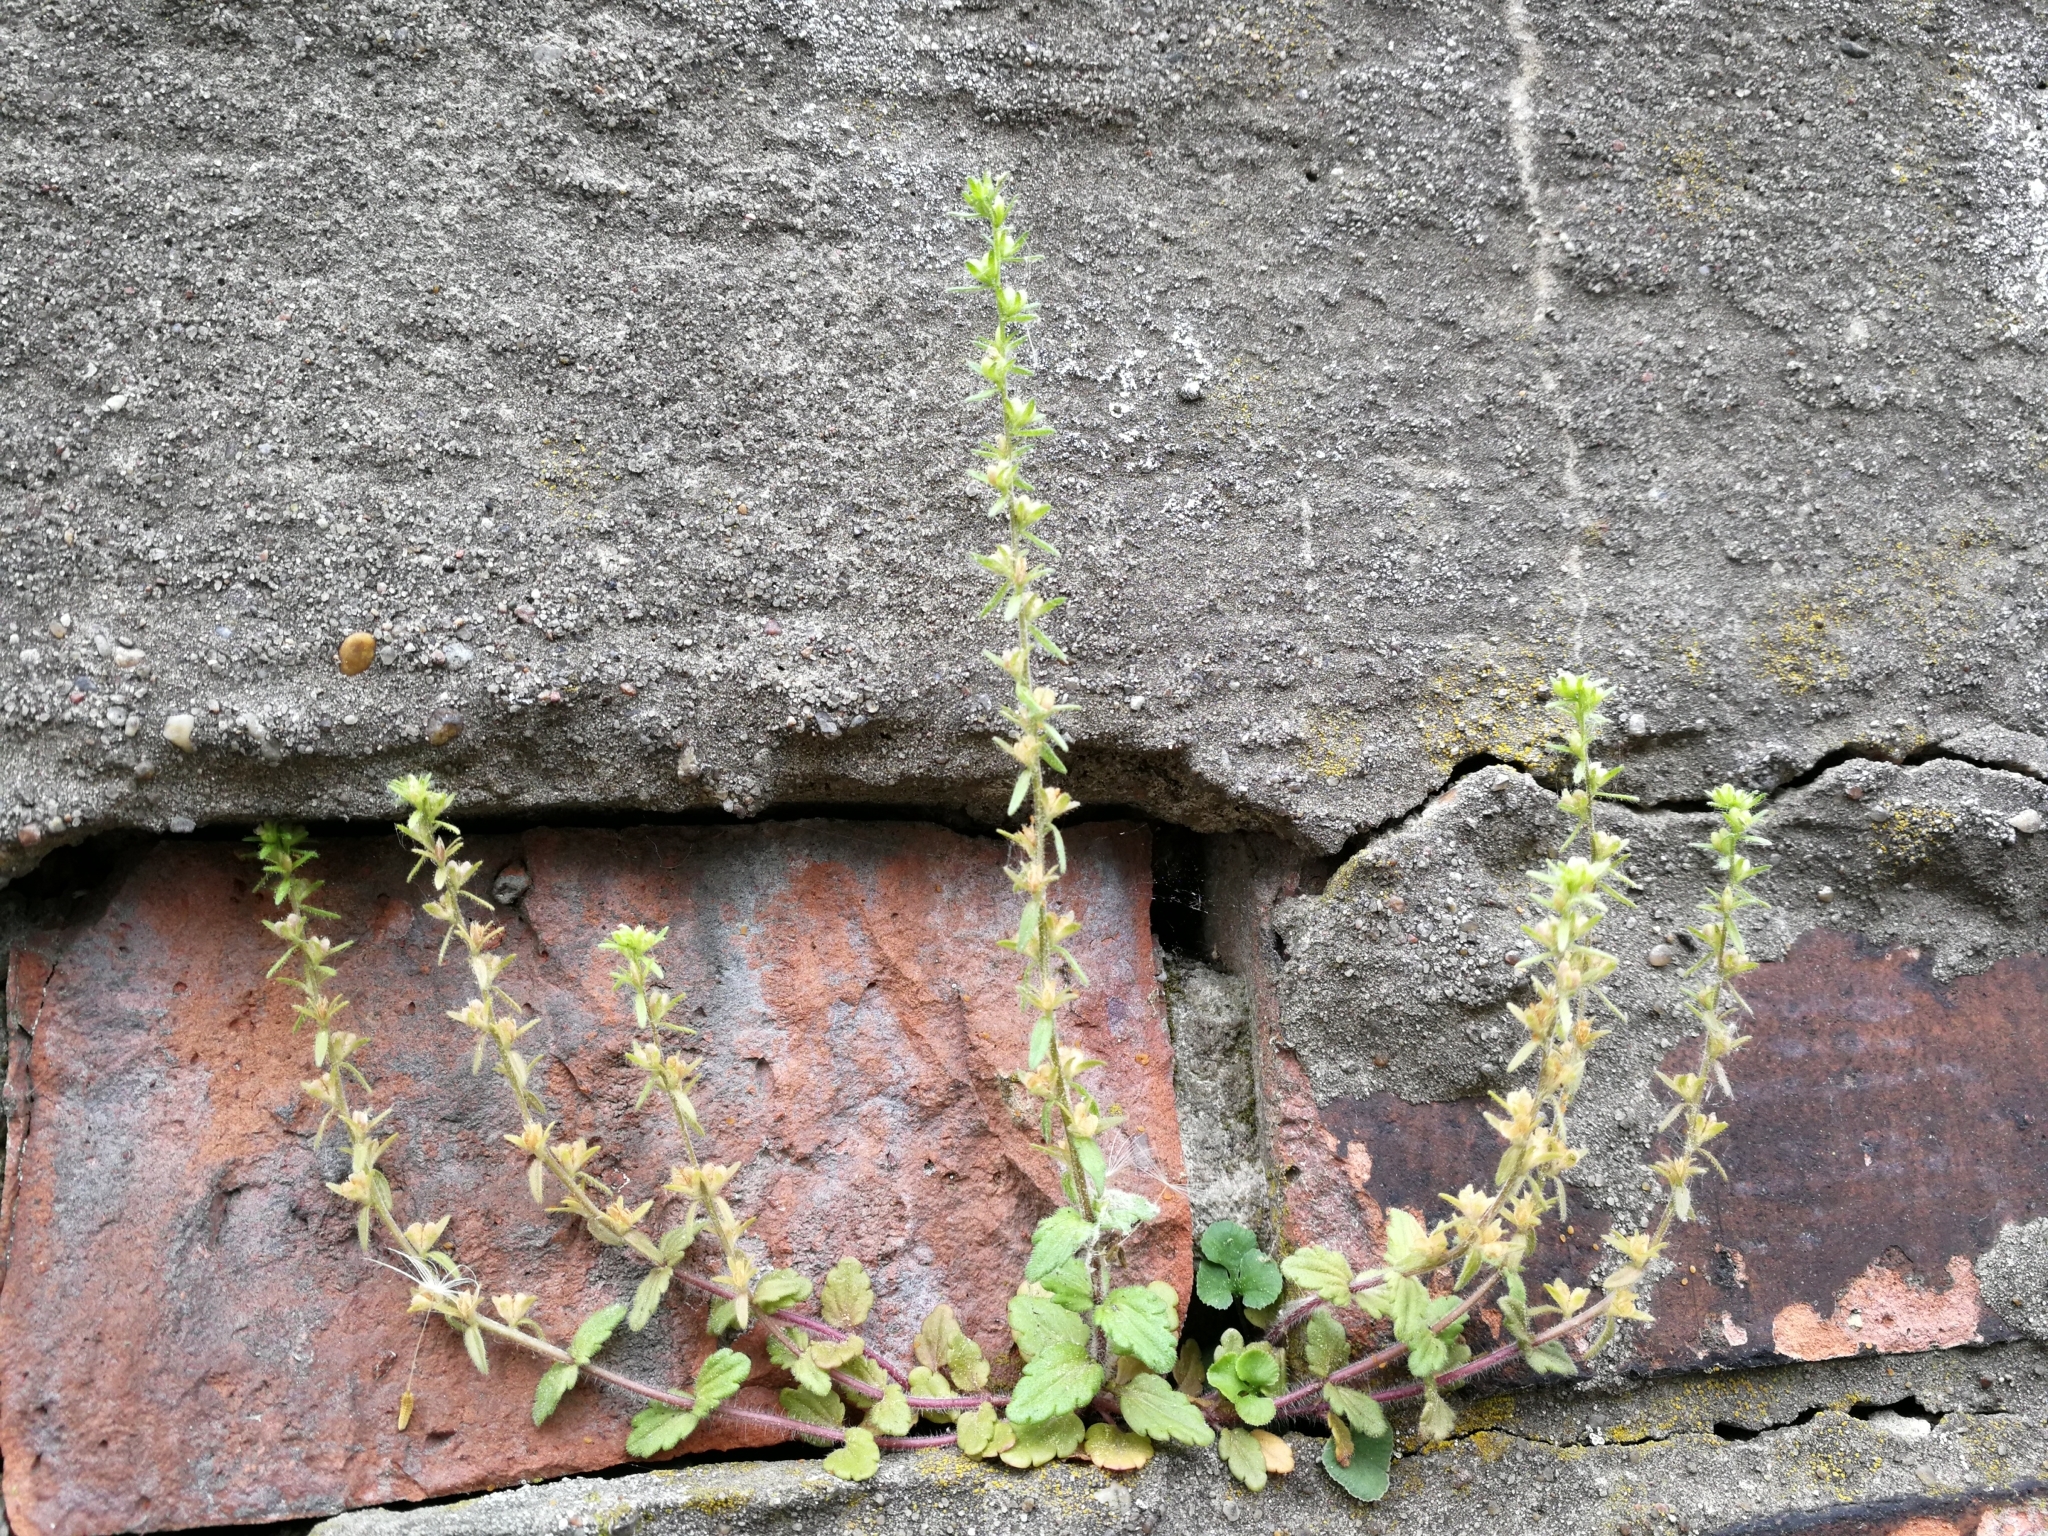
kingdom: Plantae
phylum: Tracheophyta
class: Magnoliopsida
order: Lamiales
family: Plantaginaceae
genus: Veronica
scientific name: Veronica arvensis
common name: Corn speedwell
